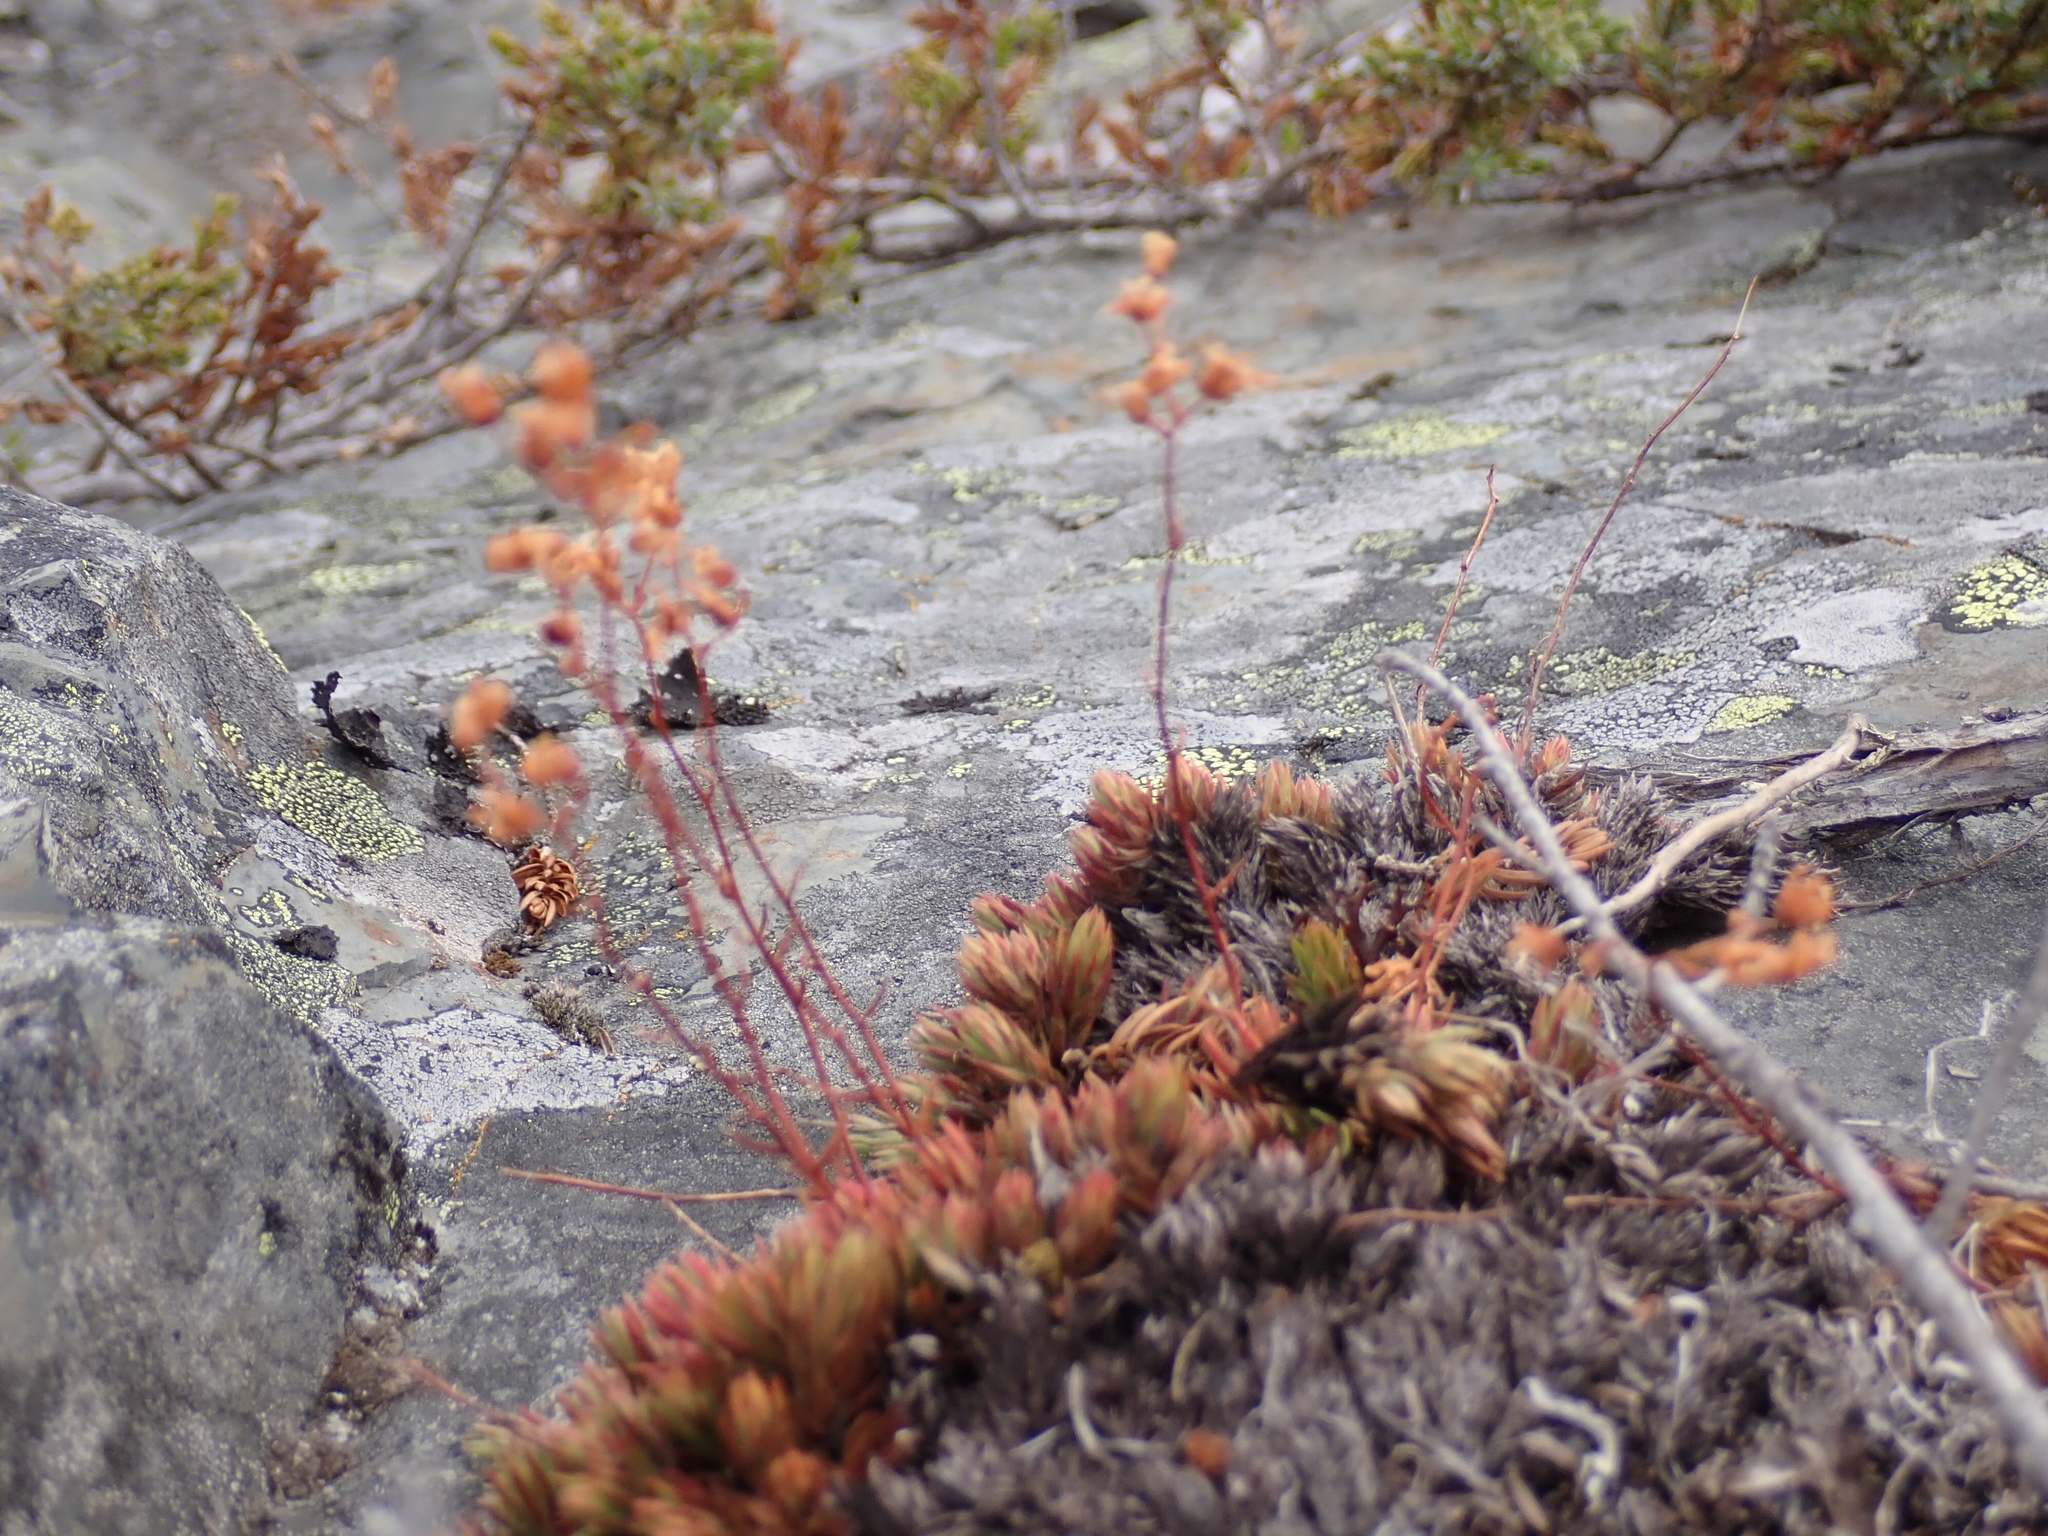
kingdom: Plantae
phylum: Tracheophyta
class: Magnoliopsida
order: Saxifragales
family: Saxifragaceae
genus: Saxifraga
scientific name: Saxifraga bronchialis
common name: Matted saxifrage
